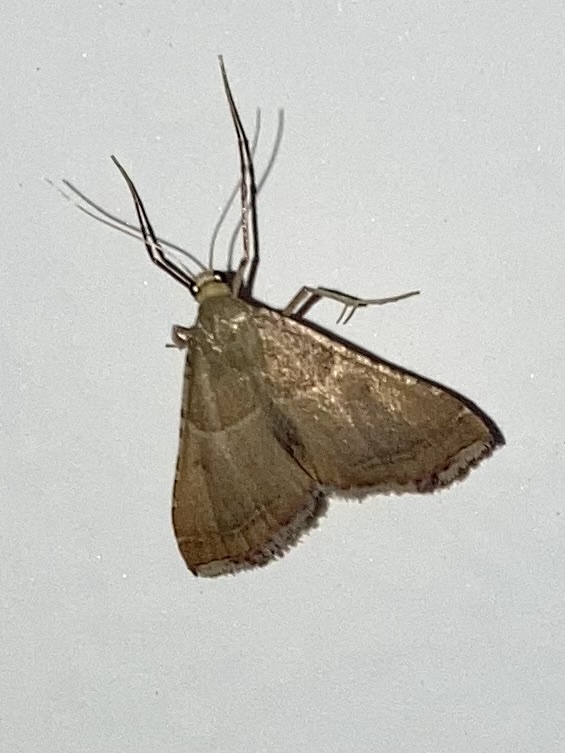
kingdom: Animalia
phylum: Arthropoda
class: Insecta
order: Lepidoptera
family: Pyralidae
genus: Endotricha
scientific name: Endotricha flammealis
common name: Rosy tabby
